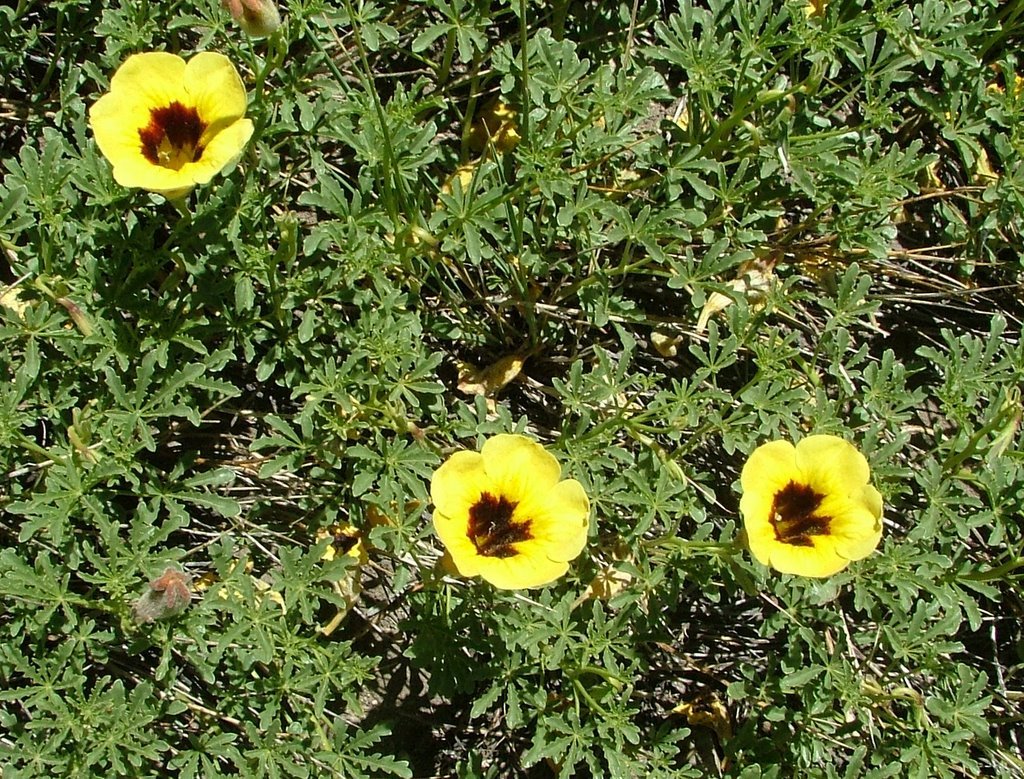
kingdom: Plantae
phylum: Tracheophyta
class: Magnoliopsida
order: Lamiales
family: Bignoniaceae
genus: Argylia
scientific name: Argylia bustillosii
